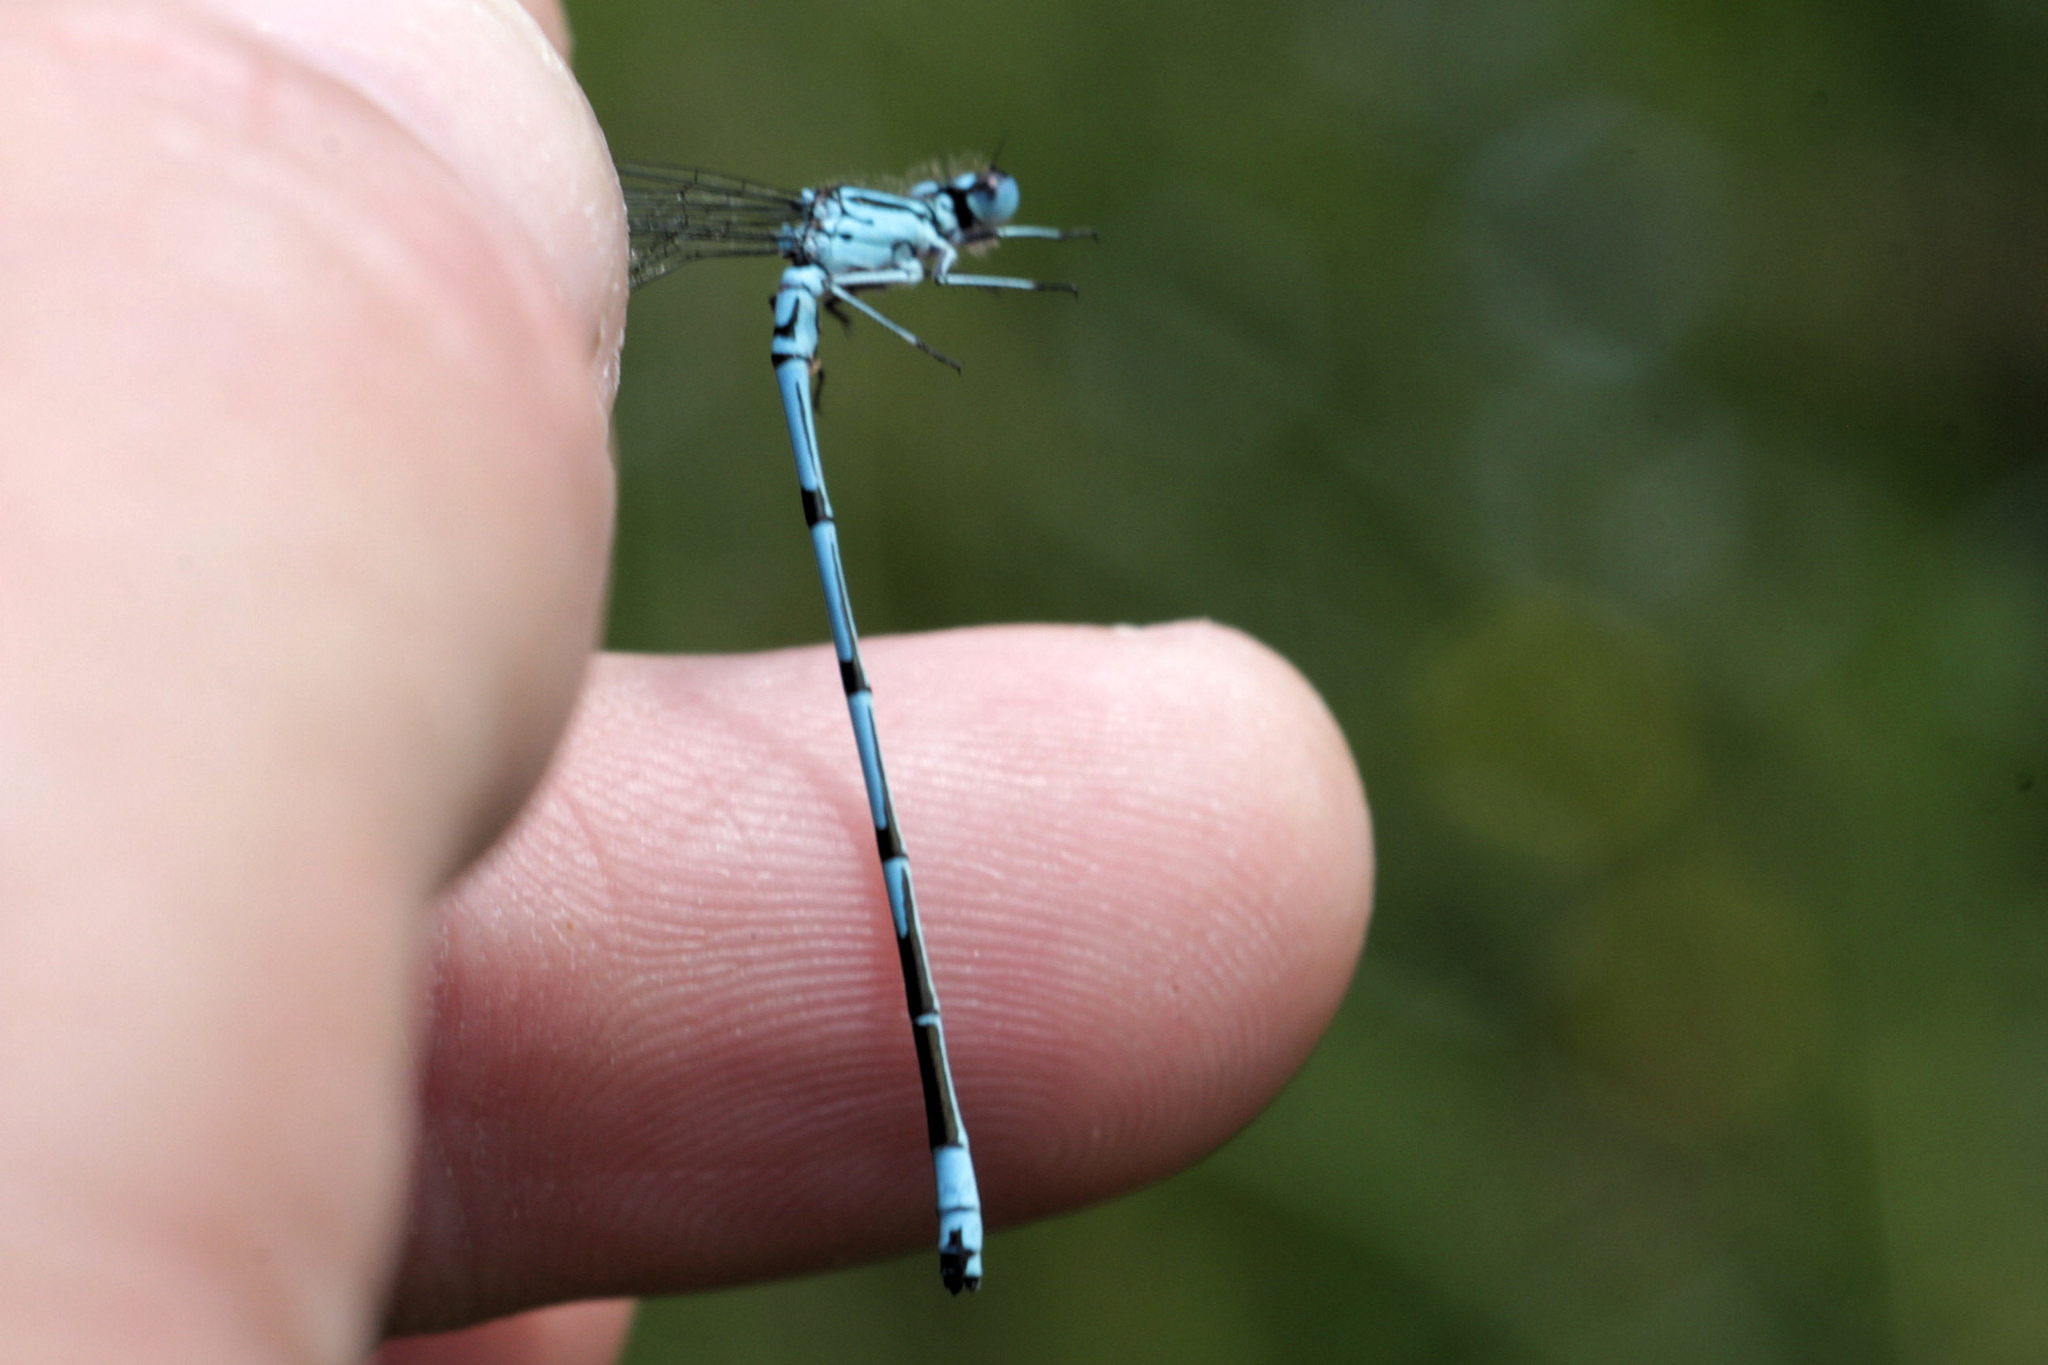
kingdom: Animalia
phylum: Arthropoda
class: Insecta
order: Odonata
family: Coenagrionidae
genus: Coenagrion
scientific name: Coenagrion puella
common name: Azure damselfly
